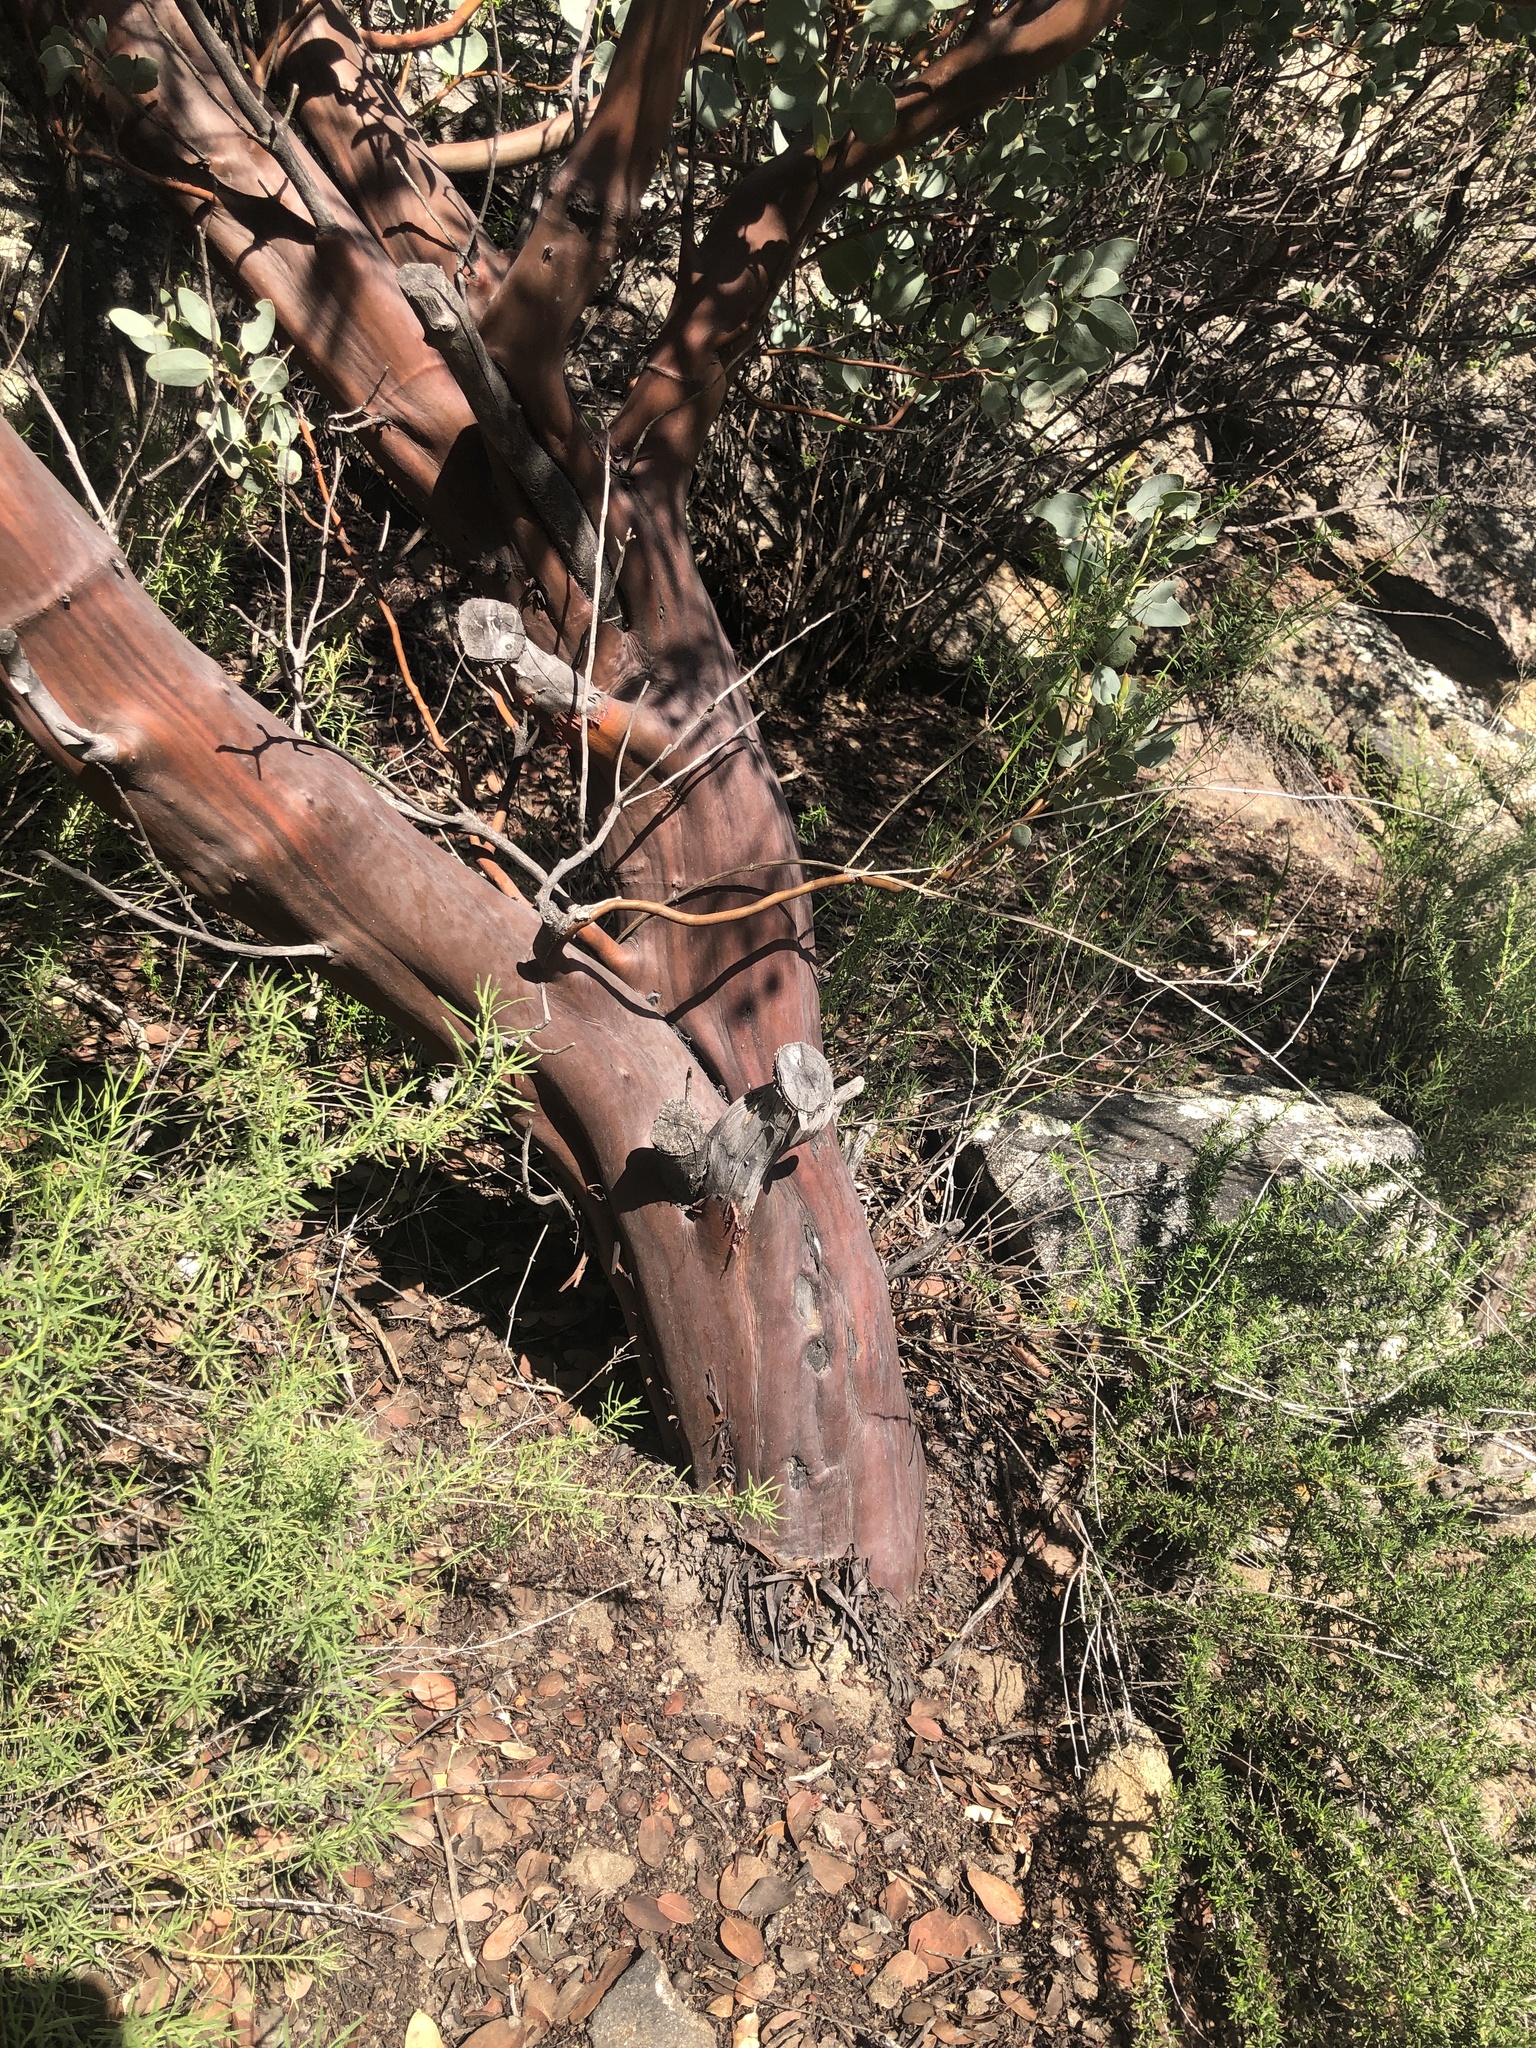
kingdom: Plantae
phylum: Tracheophyta
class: Magnoliopsida
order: Ericales
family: Ericaceae
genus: Arctostaphylos
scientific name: Arctostaphylos glauca
